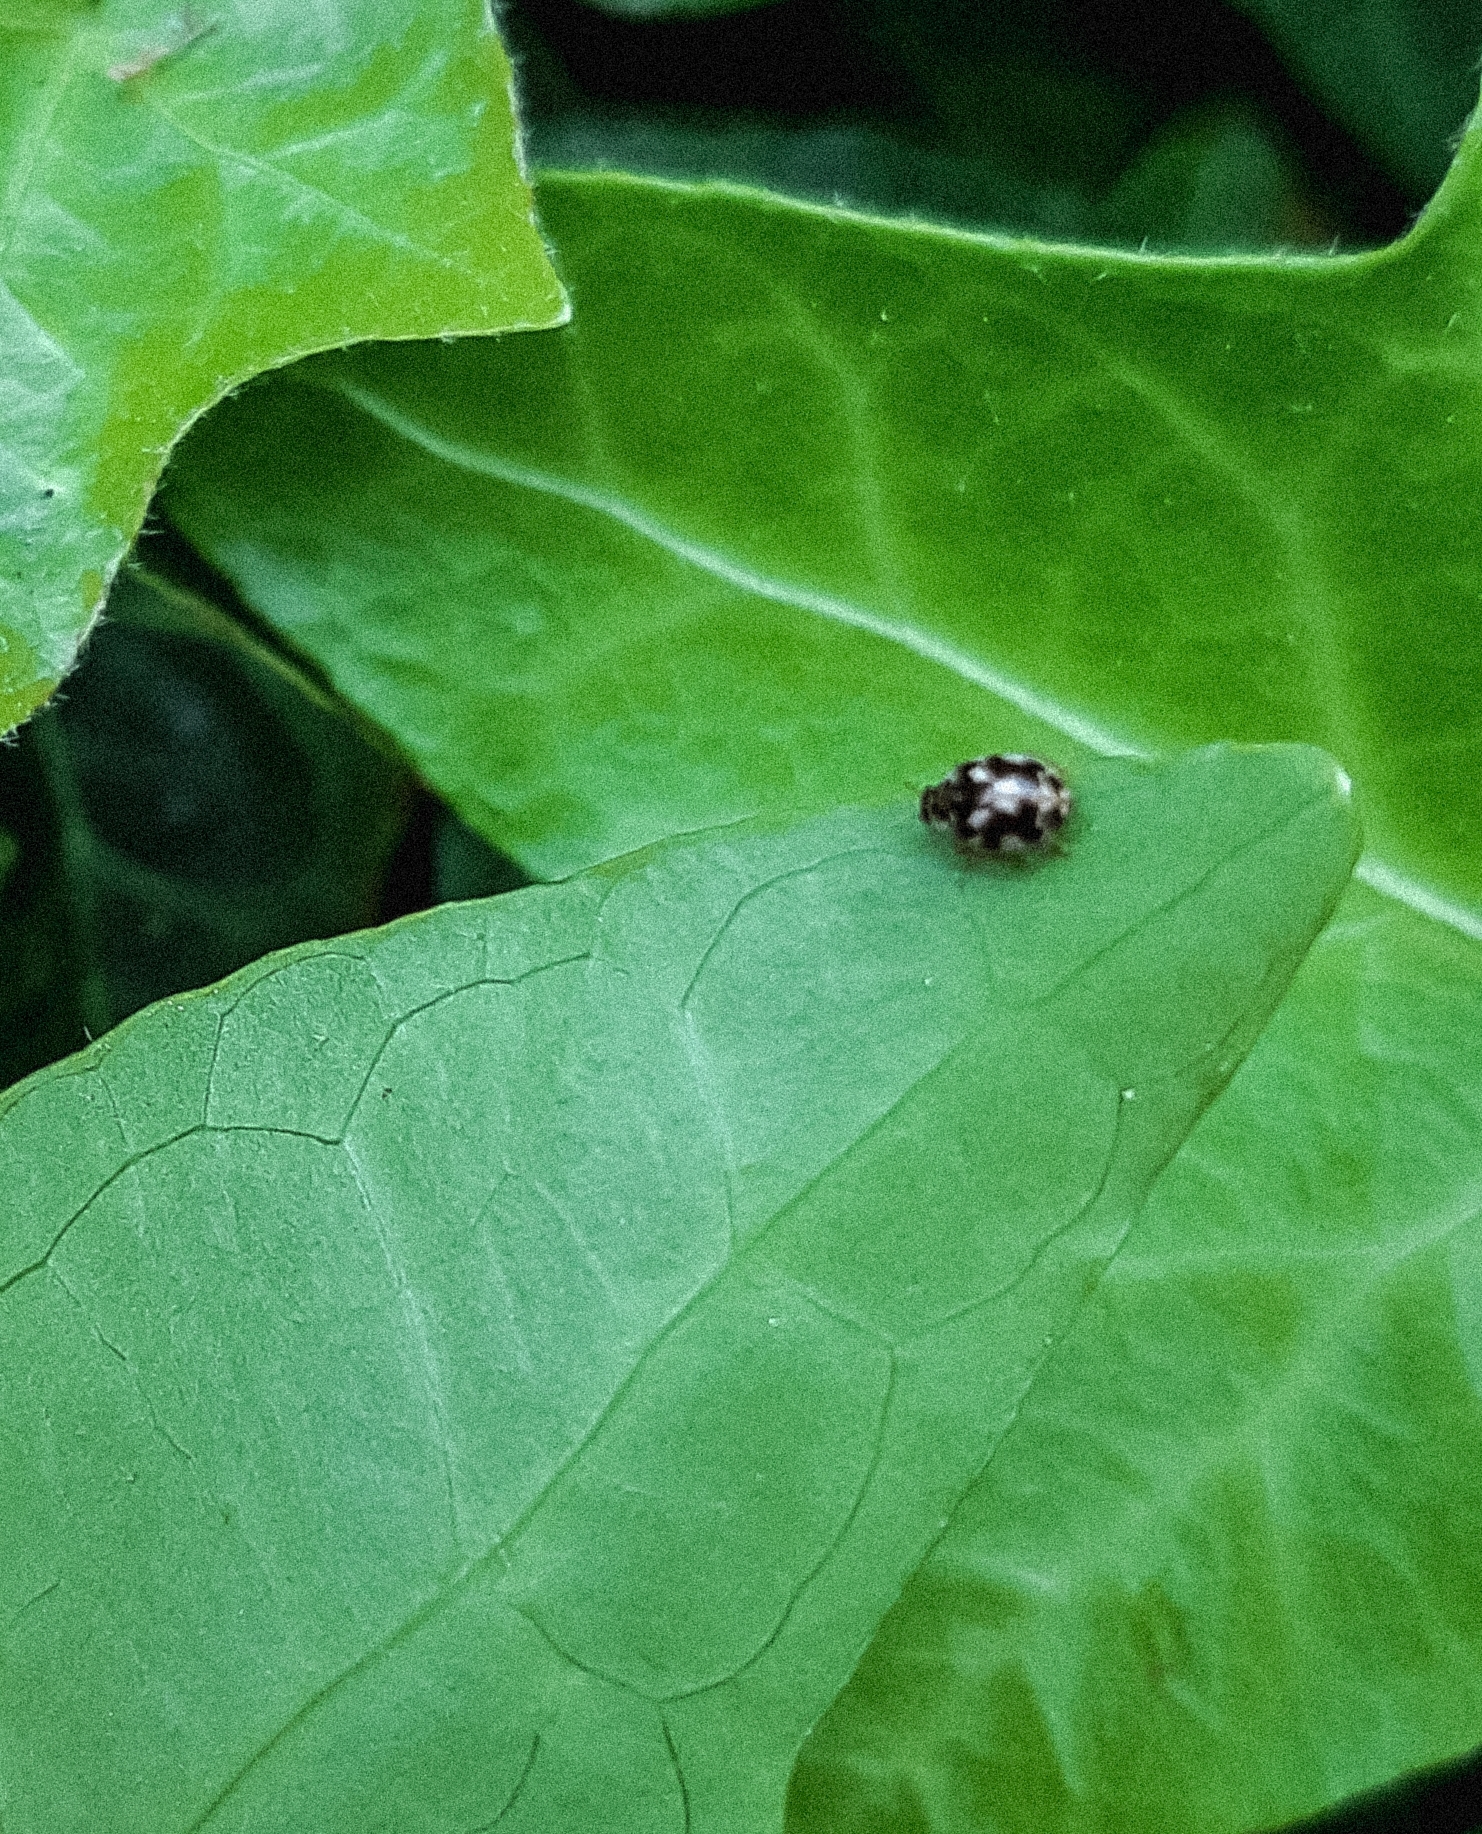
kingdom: Animalia
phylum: Arthropoda
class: Insecta
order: Coleoptera
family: Coccinellidae
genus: Calvia
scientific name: Calvia quatuordecimguttata
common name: Cream-spot ladybird
